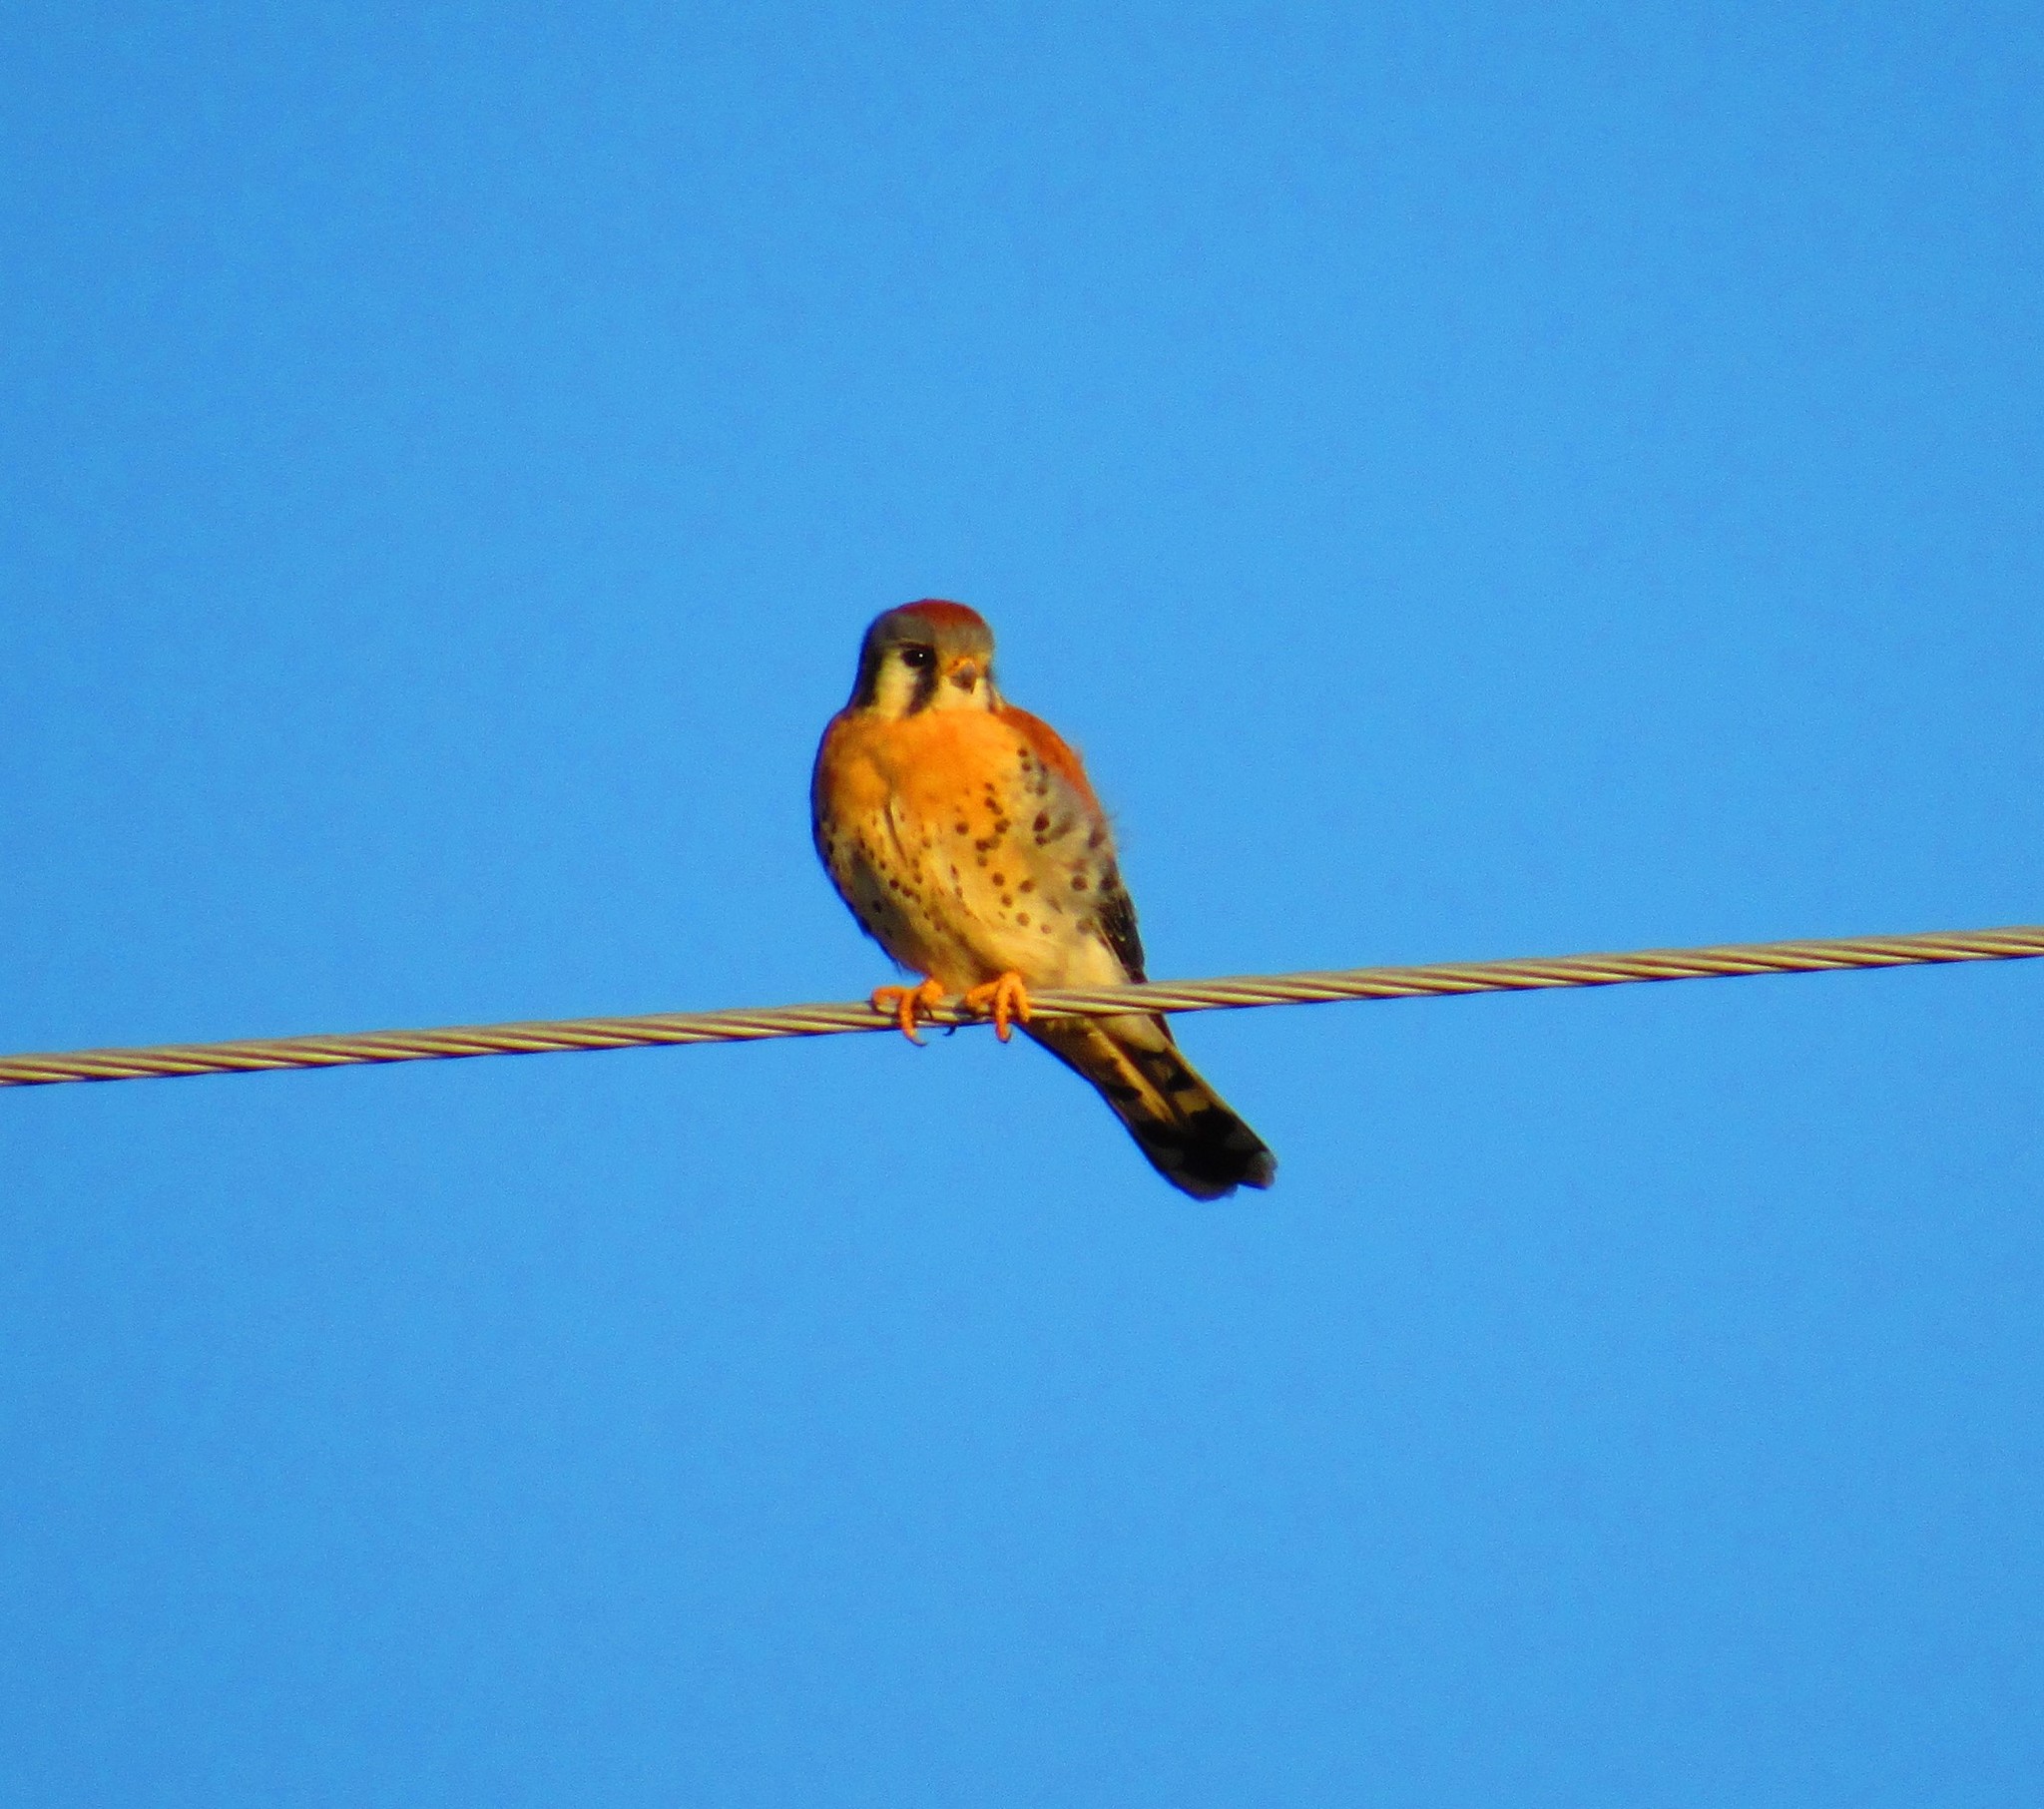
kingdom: Animalia
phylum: Chordata
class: Aves
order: Falconiformes
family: Falconidae
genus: Falco
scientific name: Falco sparverius
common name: American kestrel
